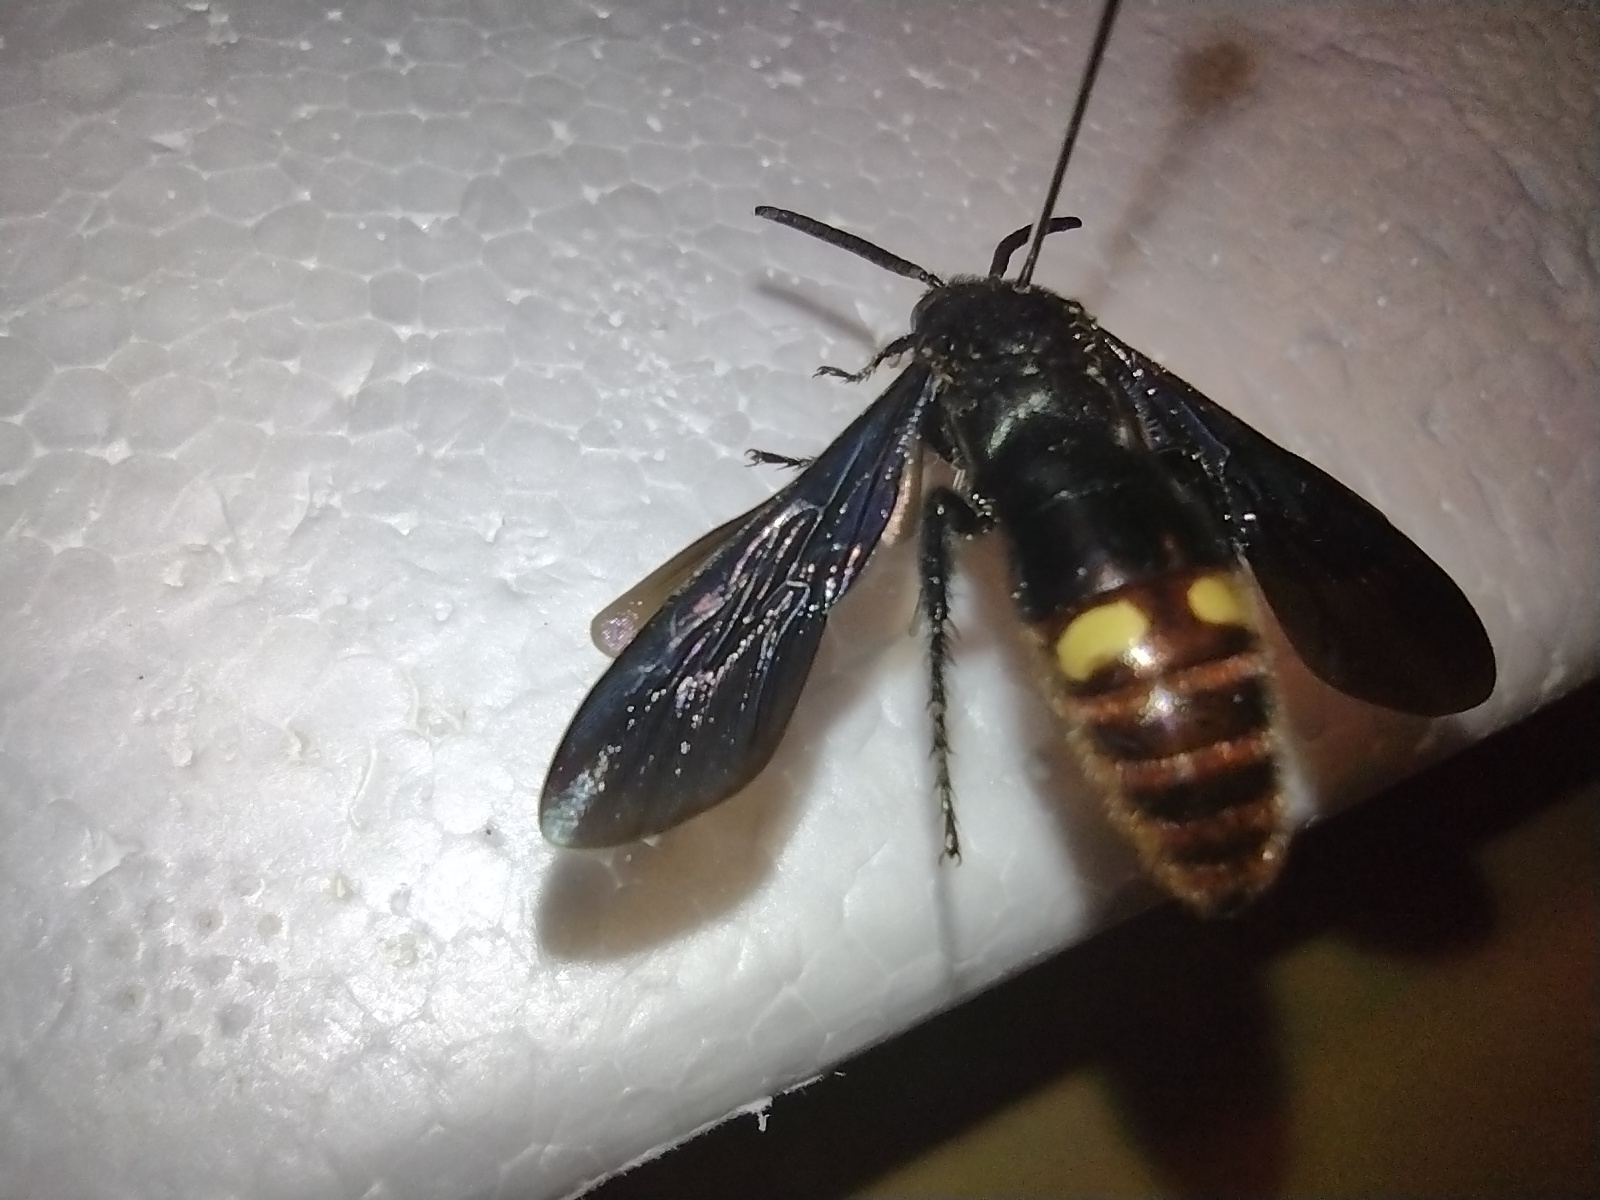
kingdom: Animalia
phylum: Arthropoda
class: Insecta
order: Hymenoptera
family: Scoliidae
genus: Scolia
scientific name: Scolia dubia
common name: Blue-winged scoliid wasp
